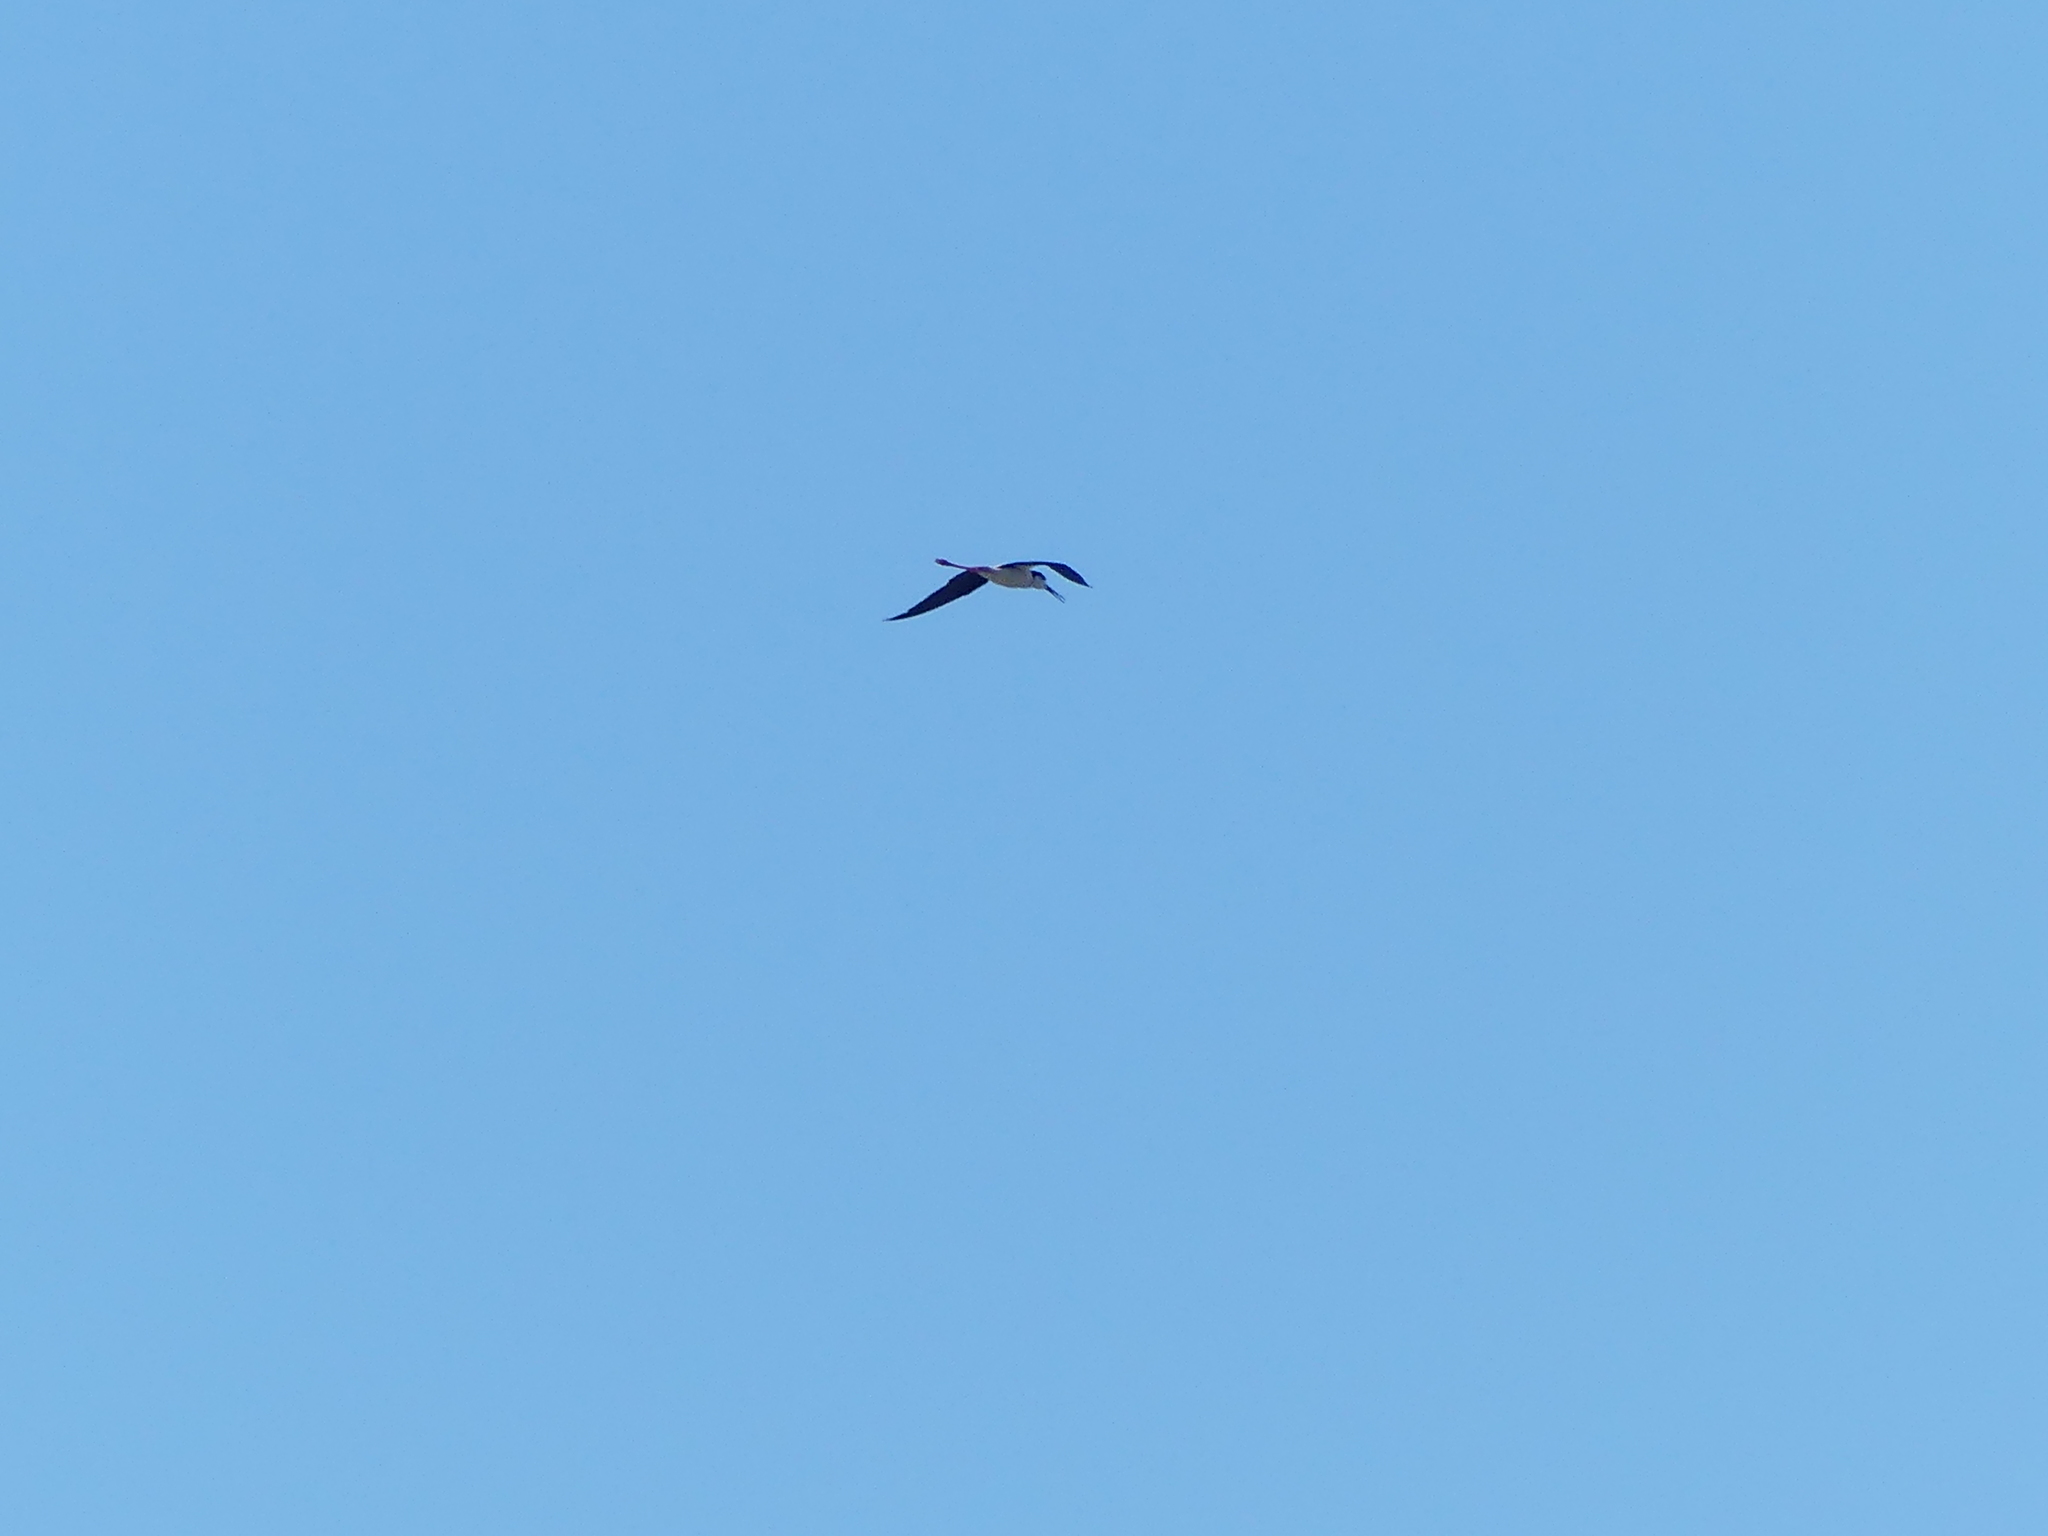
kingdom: Animalia
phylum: Chordata
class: Aves
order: Charadriiformes
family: Recurvirostridae
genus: Himantopus
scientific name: Himantopus mexicanus
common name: Black-necked stilt
